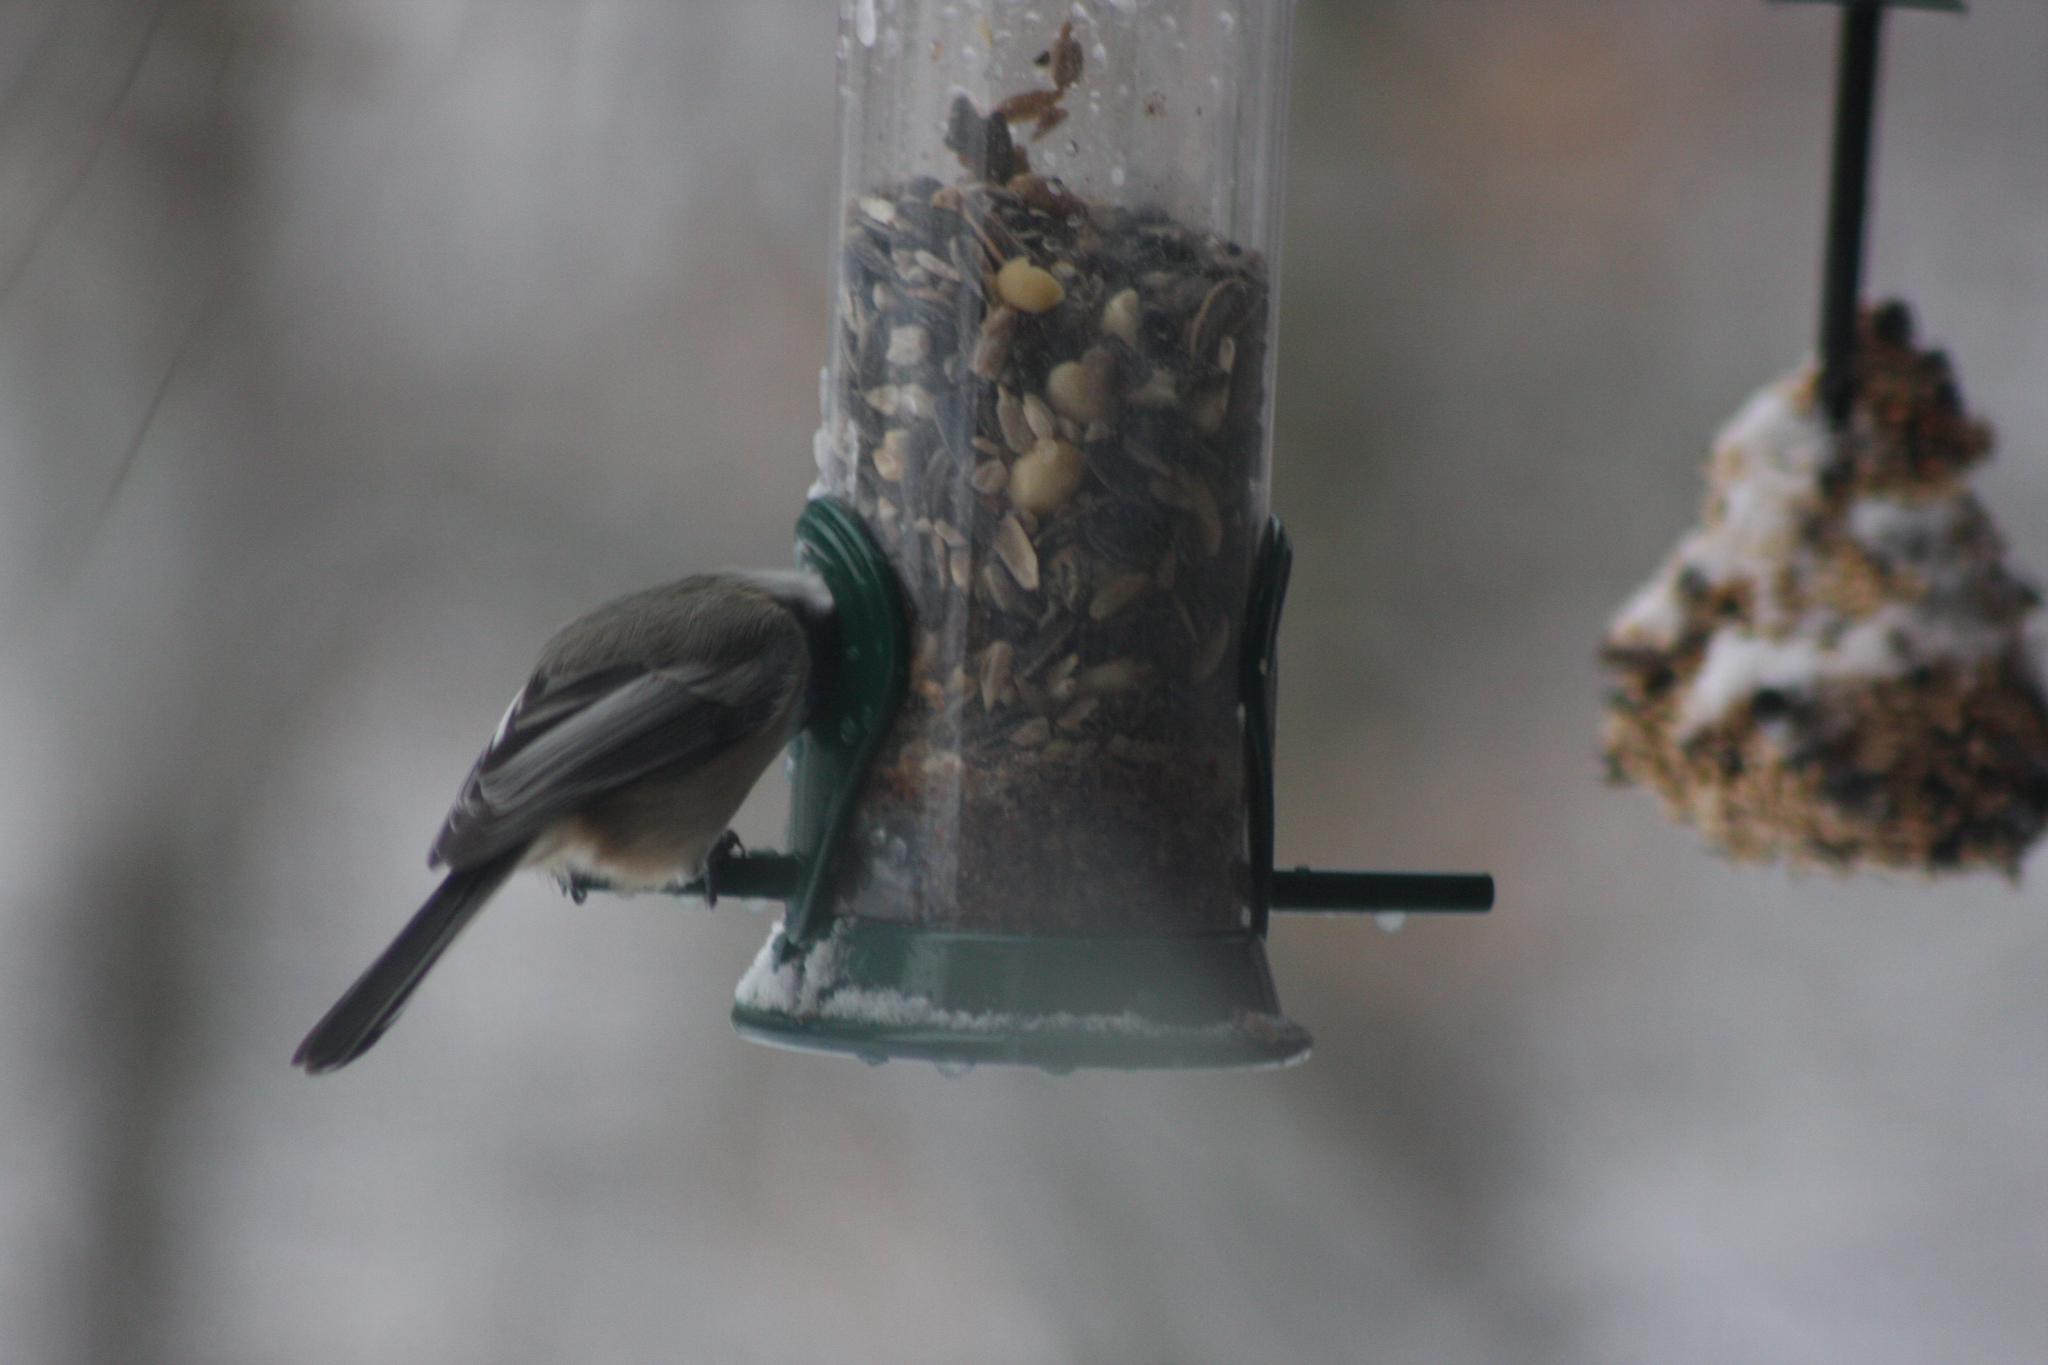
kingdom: Animalia
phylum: Chordata
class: Aves
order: Passeriformes
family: Paridae
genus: Poecile
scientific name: Poecile atricapillus
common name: Black-capped chickadee
